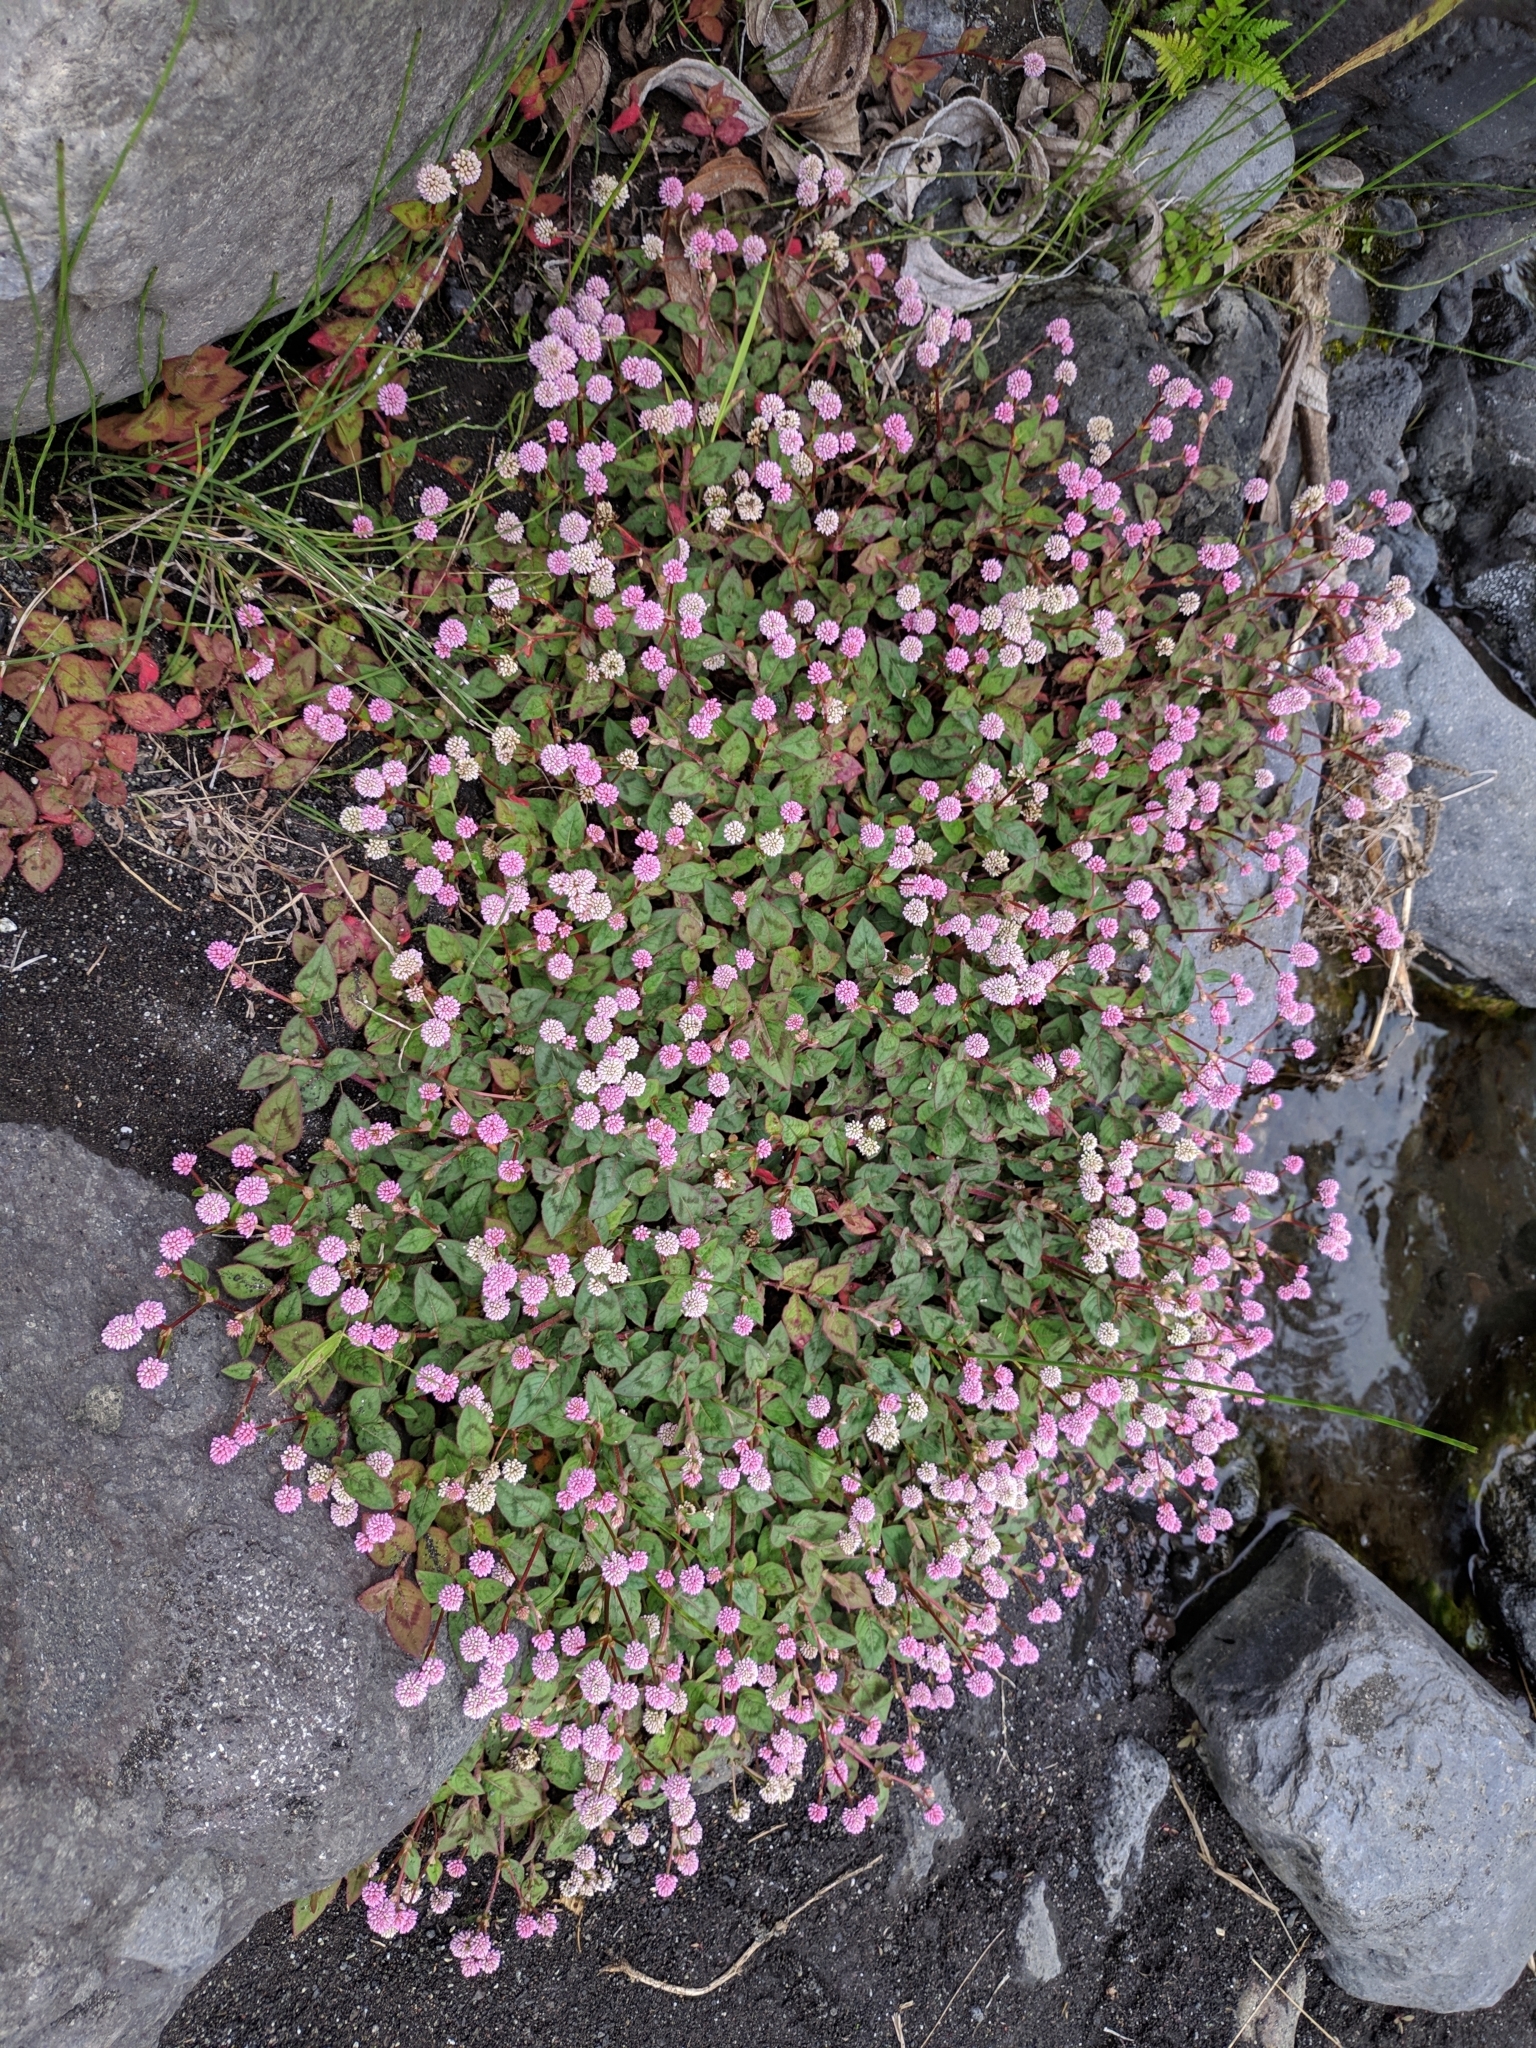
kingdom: Plantae
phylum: Tracheophyta
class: Magnoliopsida
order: Caryophyllales
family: Polygonaceae
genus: Persicaria
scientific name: Persicaria capitata
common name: Pinkhead smartweed
